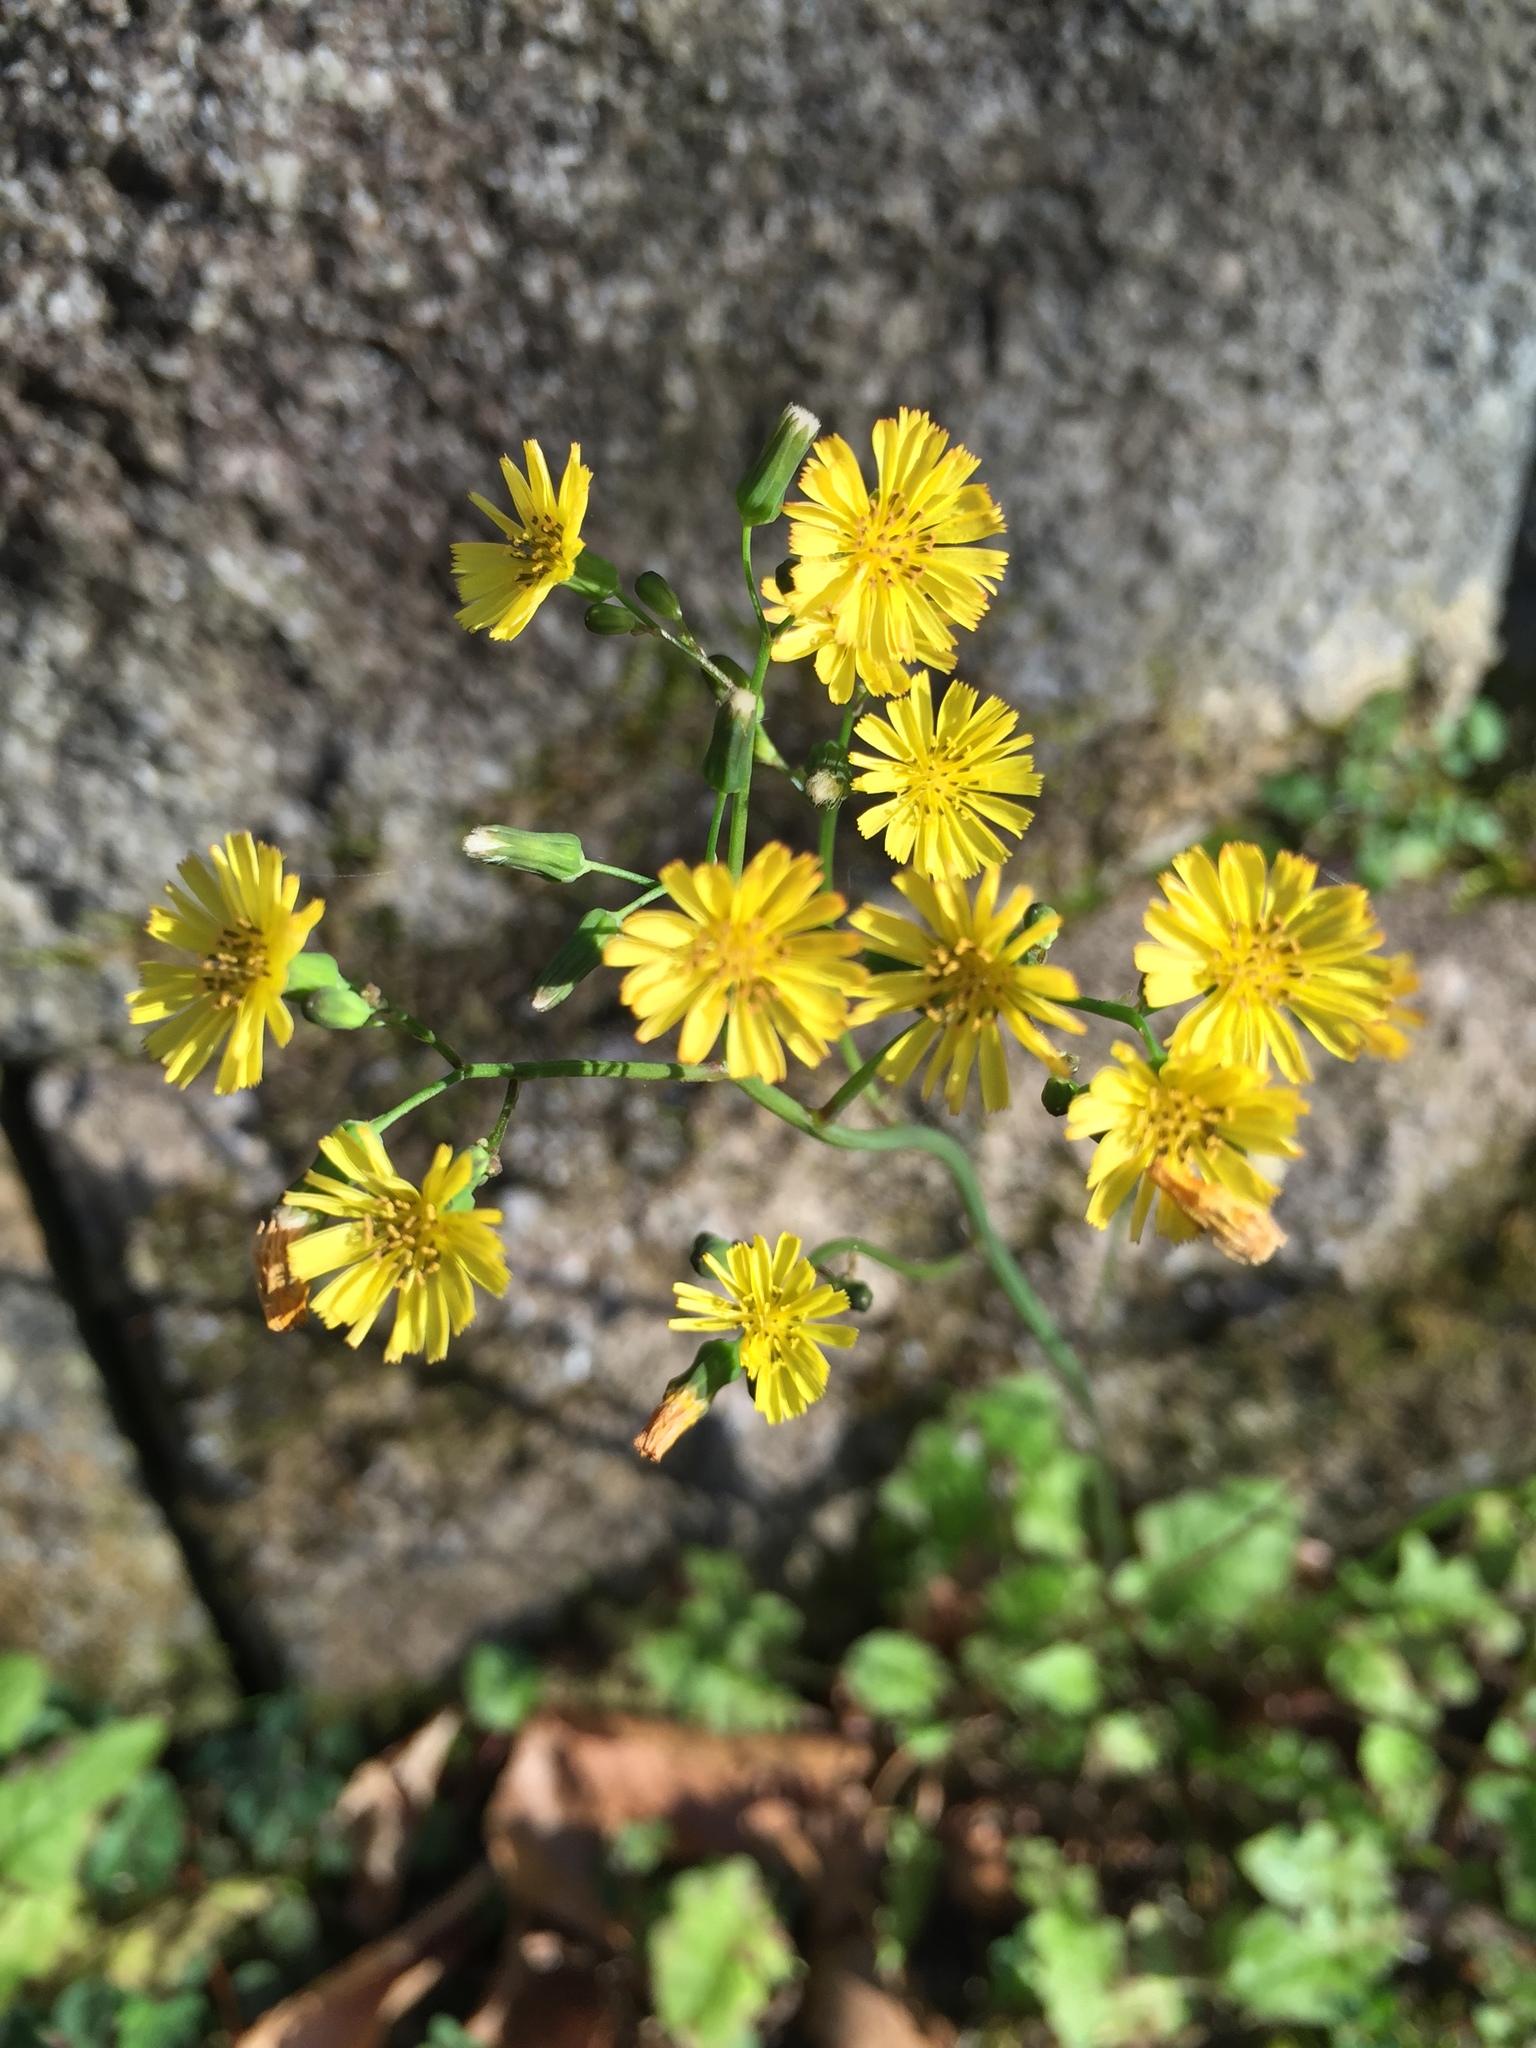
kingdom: Plantae
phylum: Tracheophyta
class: Magnoliopsida
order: Asterales
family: Asteraceae
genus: Youngia
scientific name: Youngia japonica
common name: Oriental false hawksbeard
